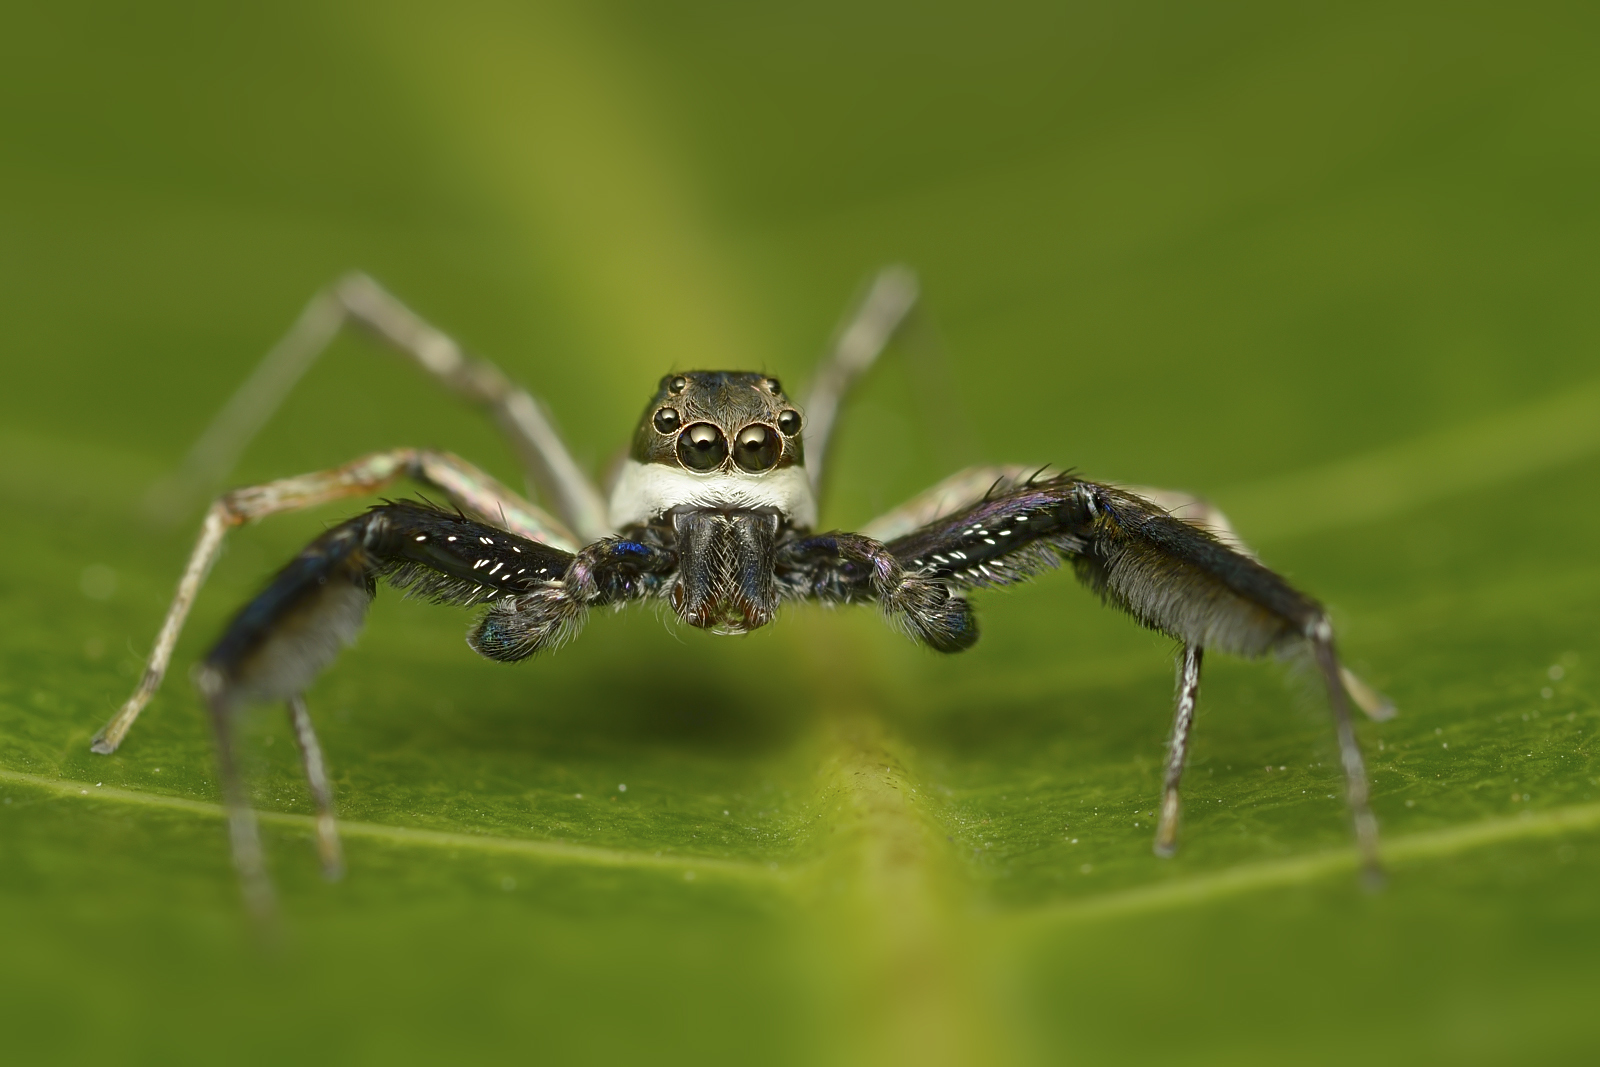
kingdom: Animalia
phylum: Arthropoda
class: Arachnida
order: Araneae
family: Salticidae
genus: Brettus
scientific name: Brettus cingulatus
